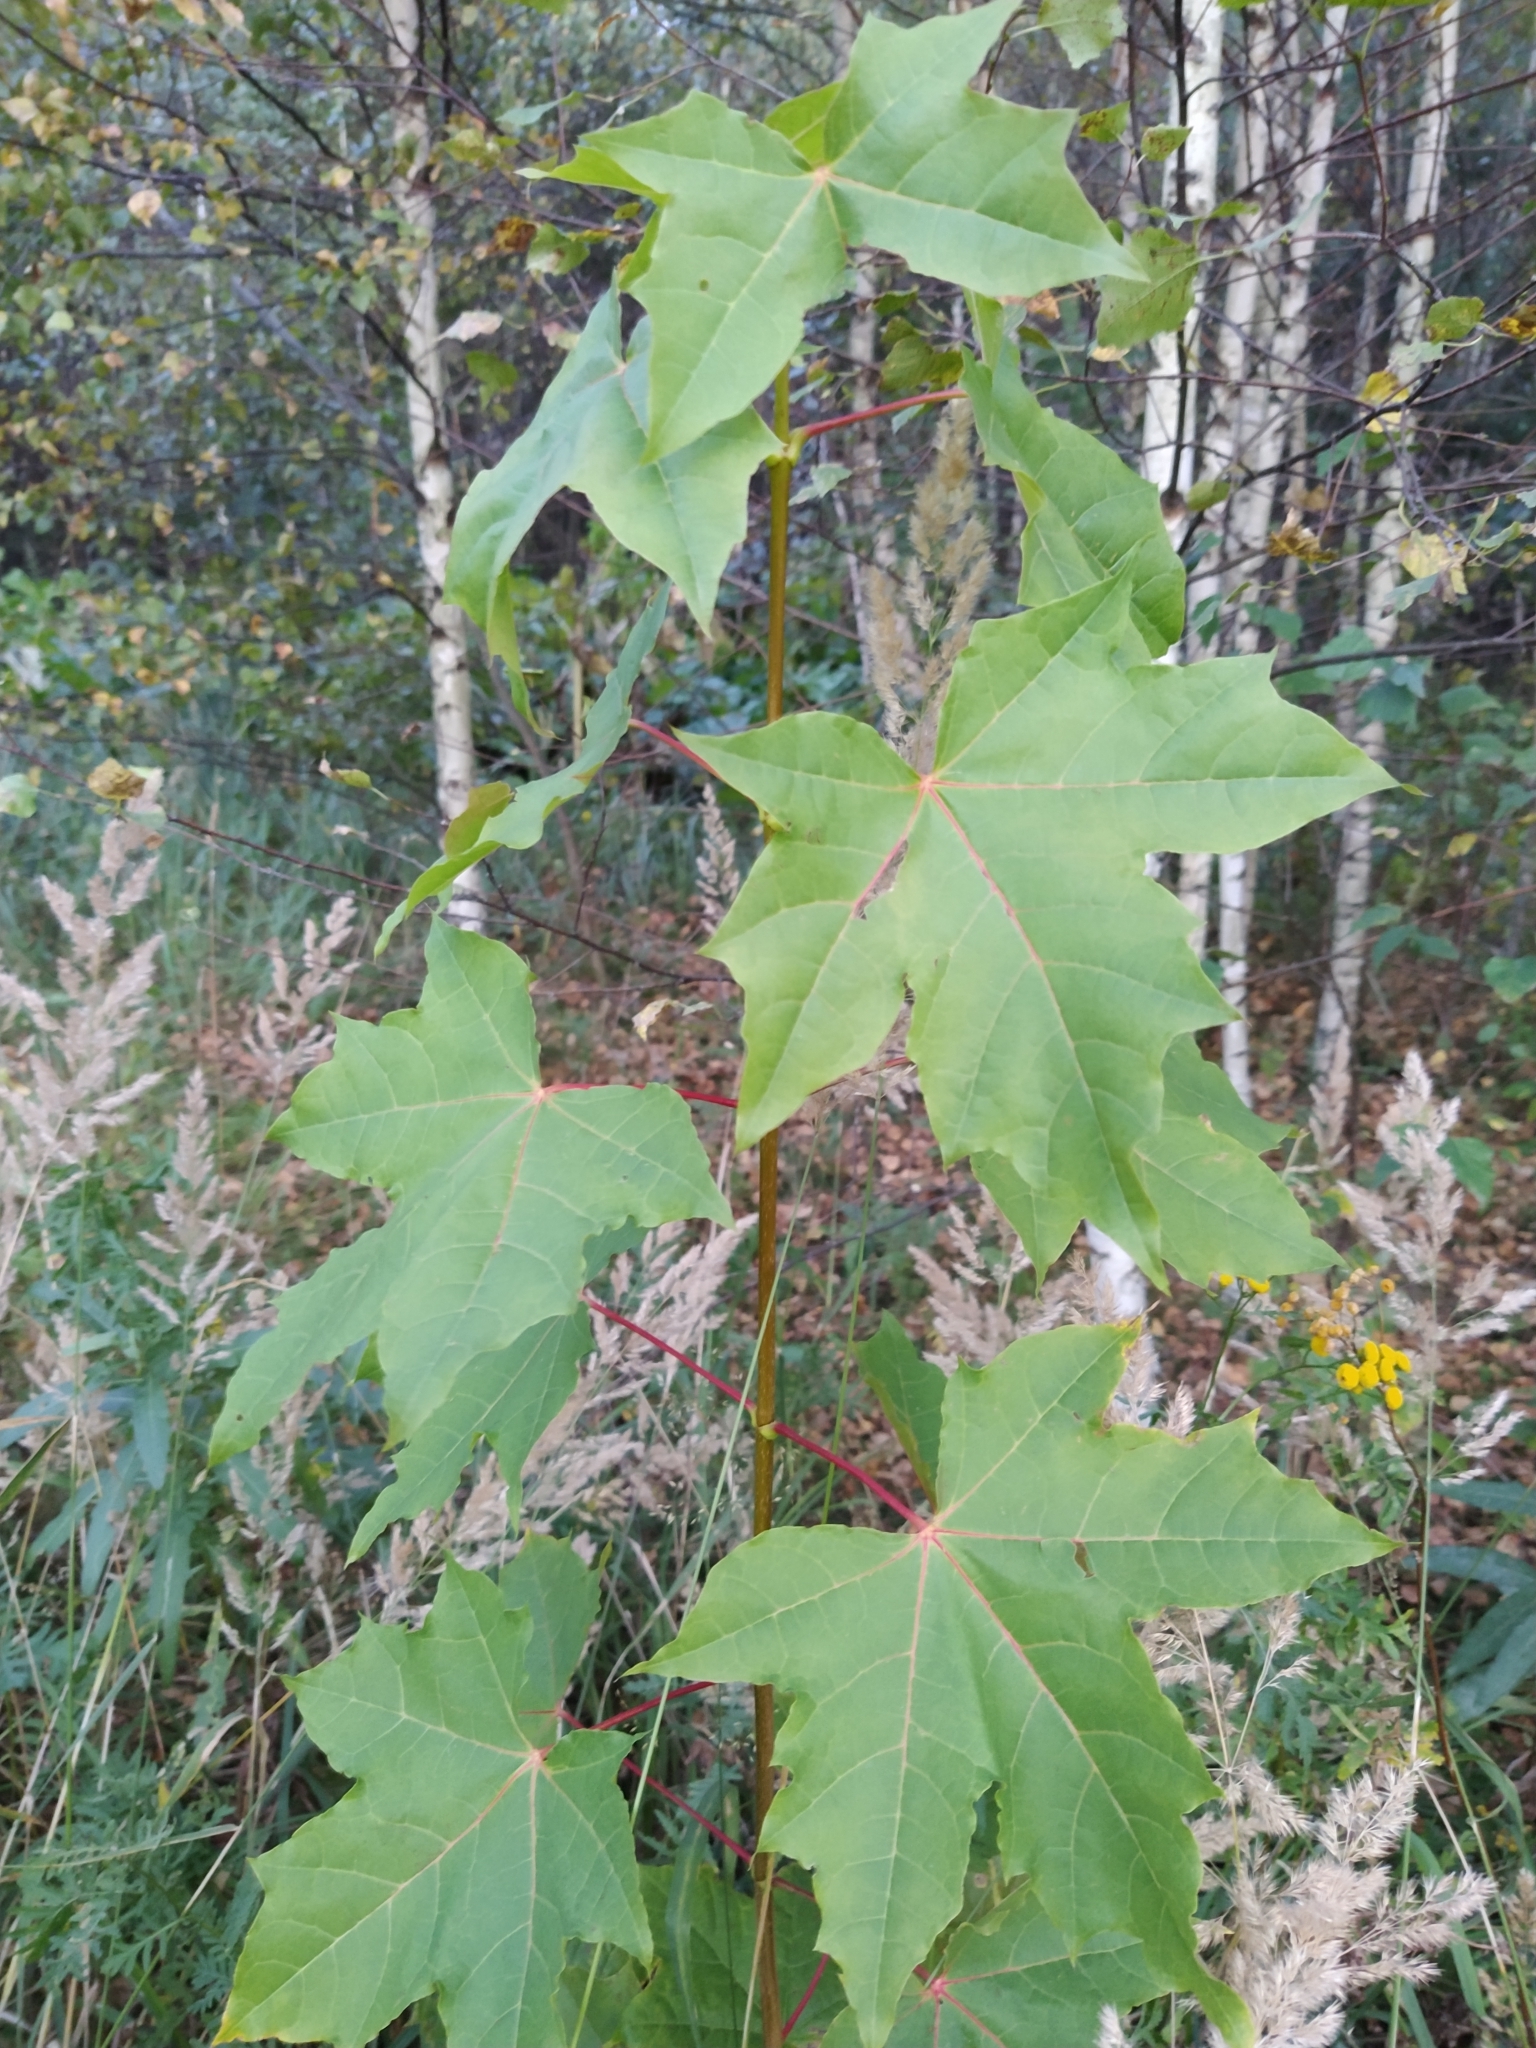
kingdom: Plantae
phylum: Tracheophyta
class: Magnoliopsida
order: Sapindales
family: Sapindaceae
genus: Acer
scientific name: Acer platanoides
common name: Norway maple
